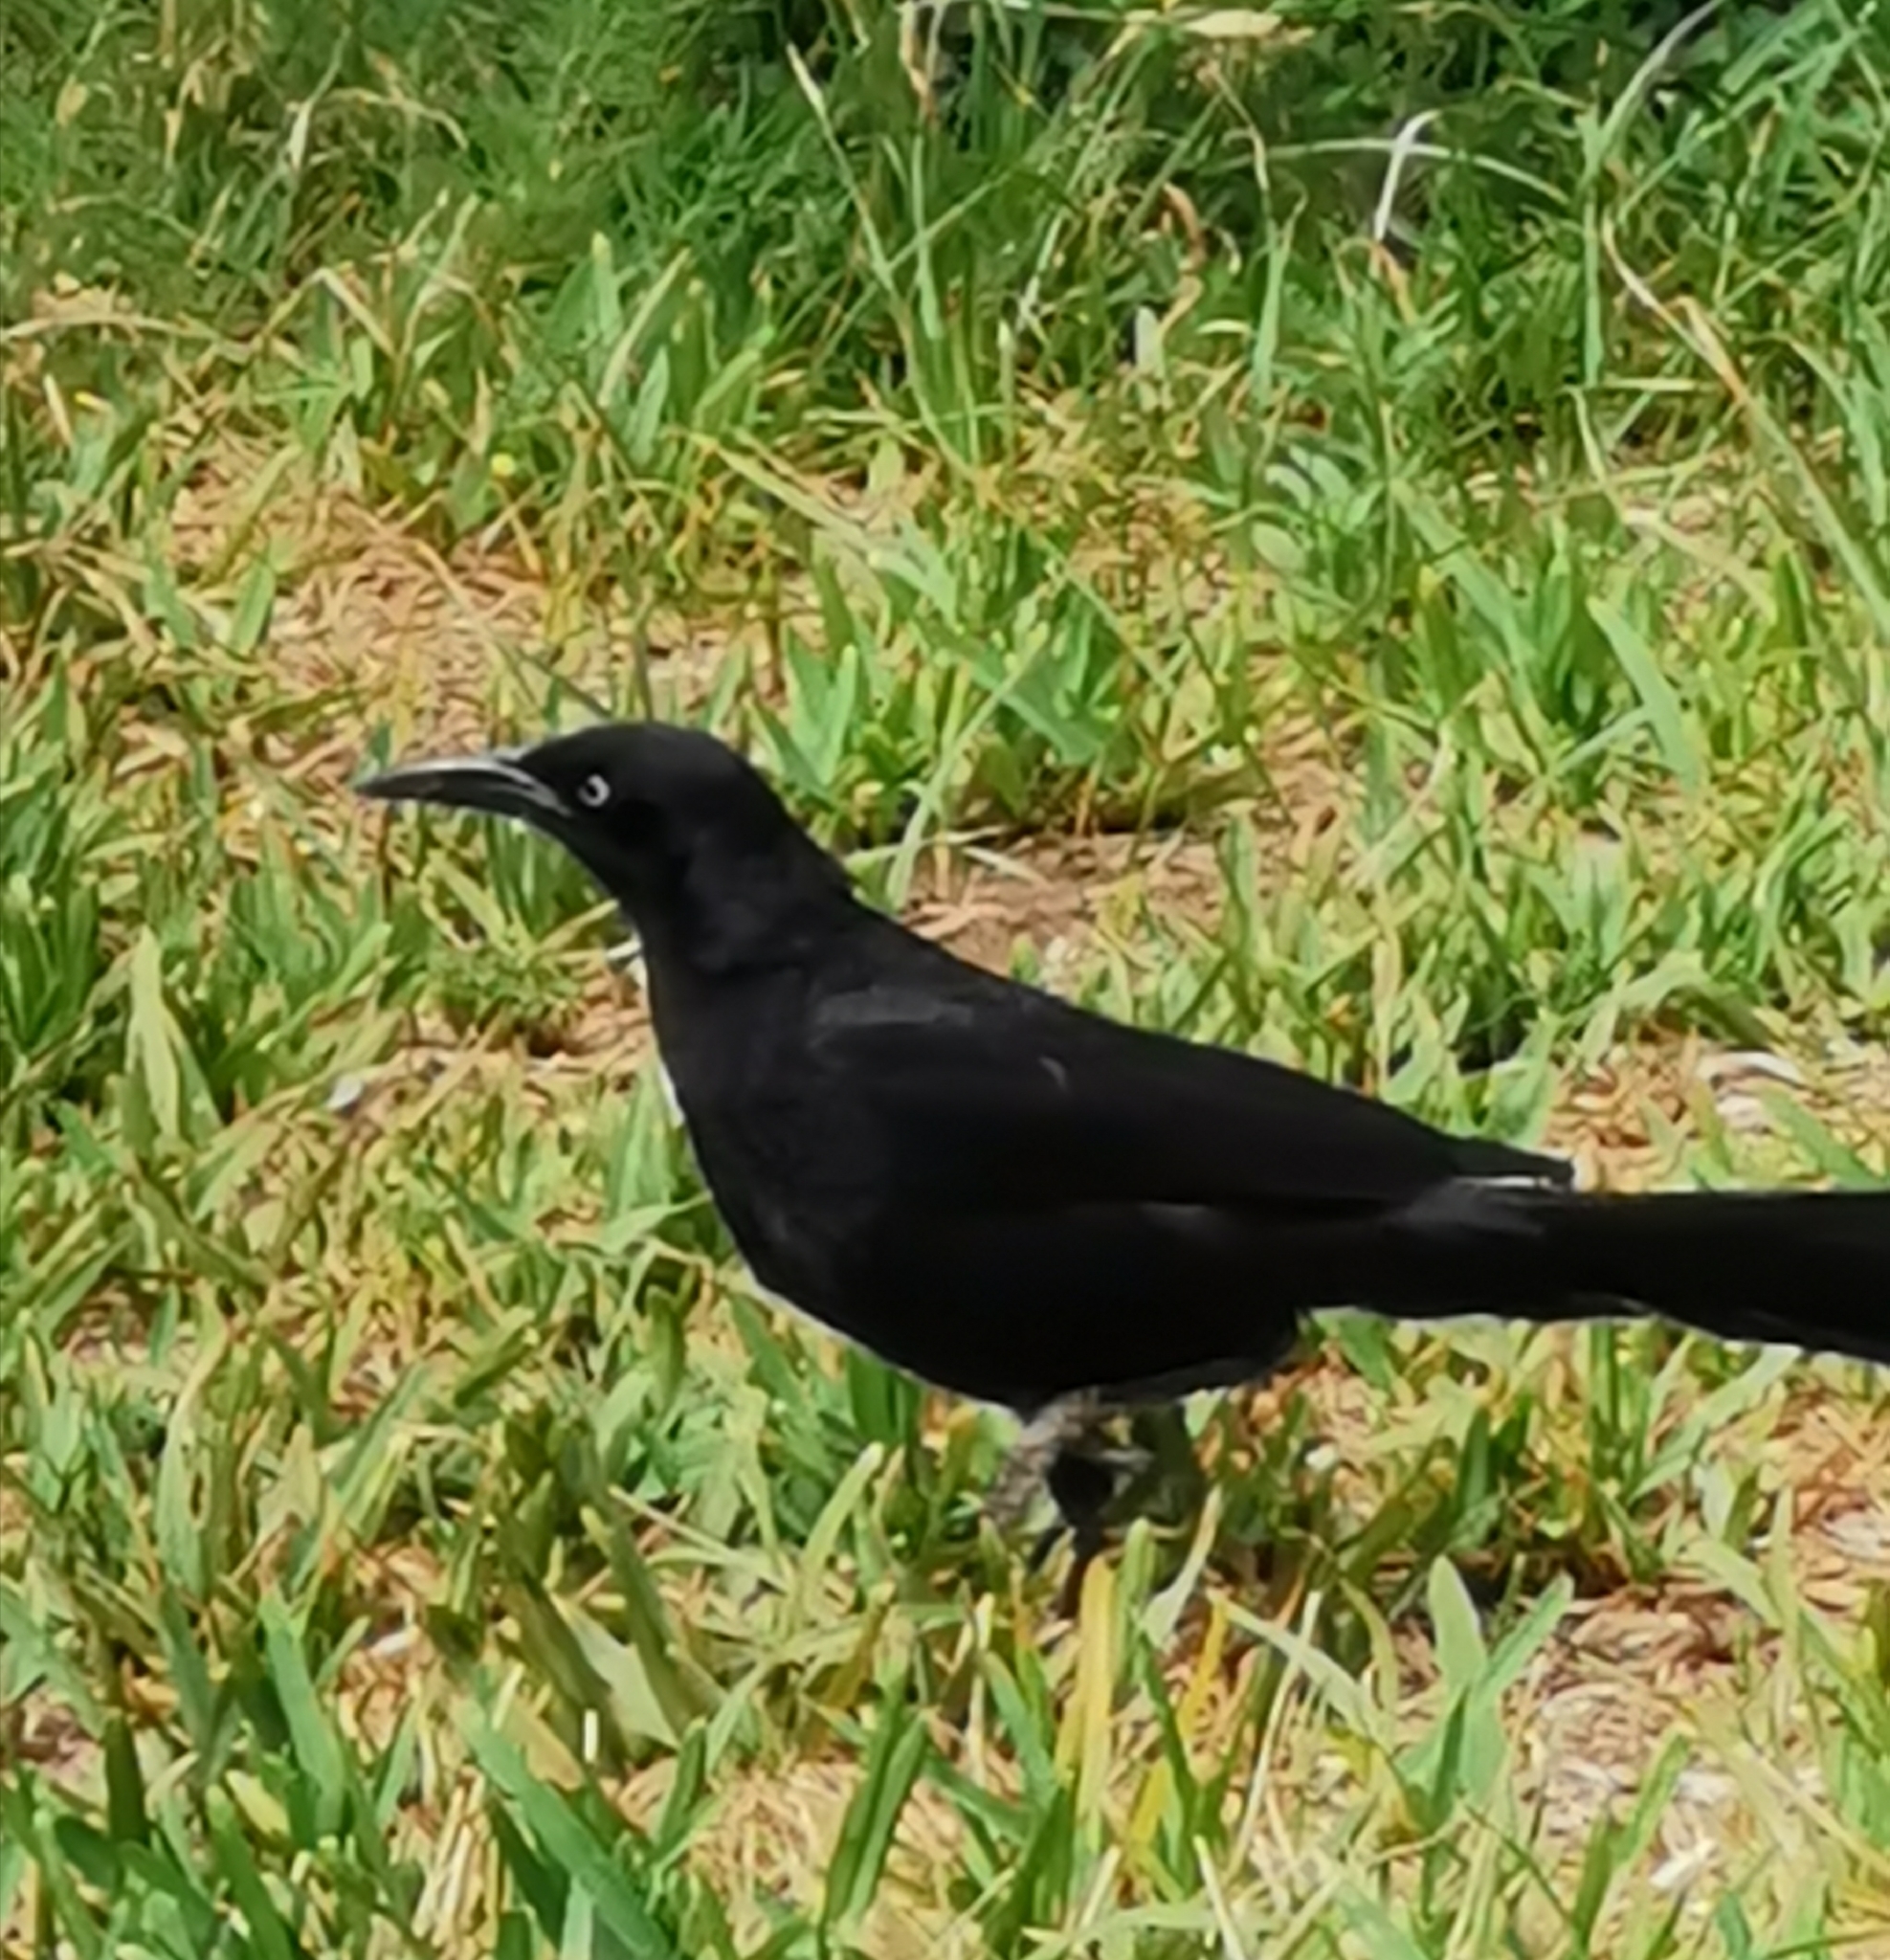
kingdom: Animalia
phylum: Chordata
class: Aves
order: Passeriformes
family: Icteridae
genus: Quiscalus
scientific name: Quiscalus mexicanus
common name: Great-tailed grackle
